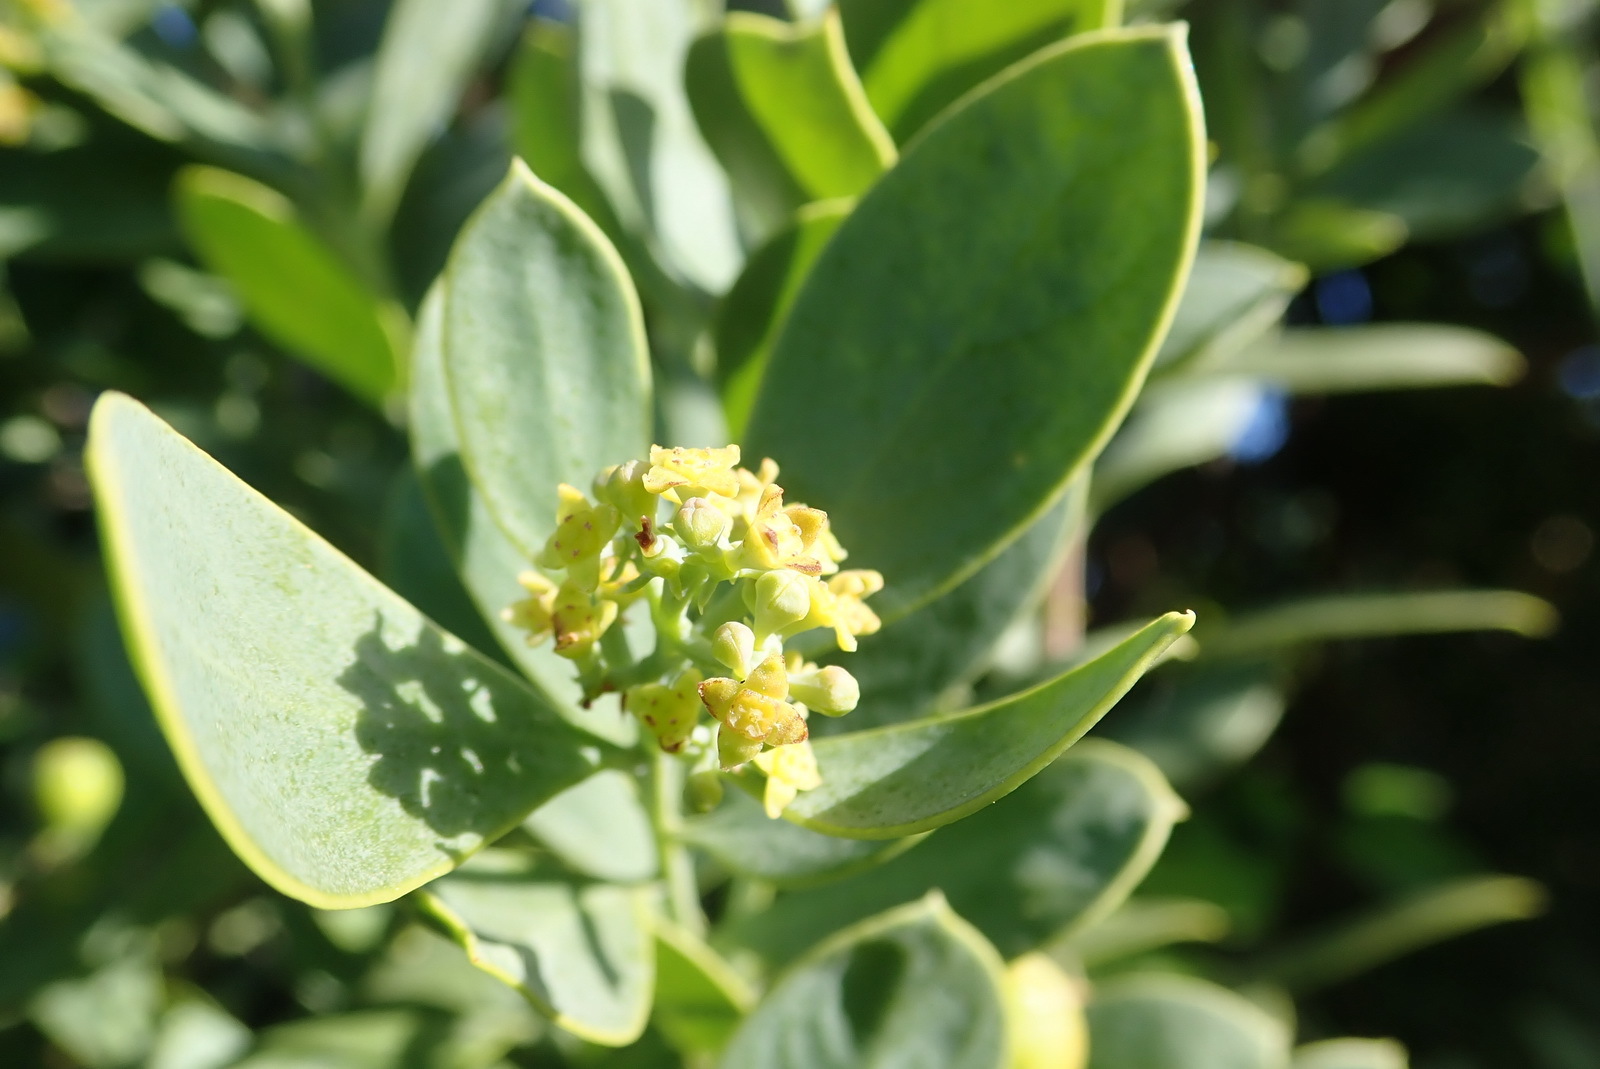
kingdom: Plantae
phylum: Tracheophyta
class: Magnoliopsida
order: Santalales
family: Santalaceae
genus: Osyris
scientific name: Osyris compressa
